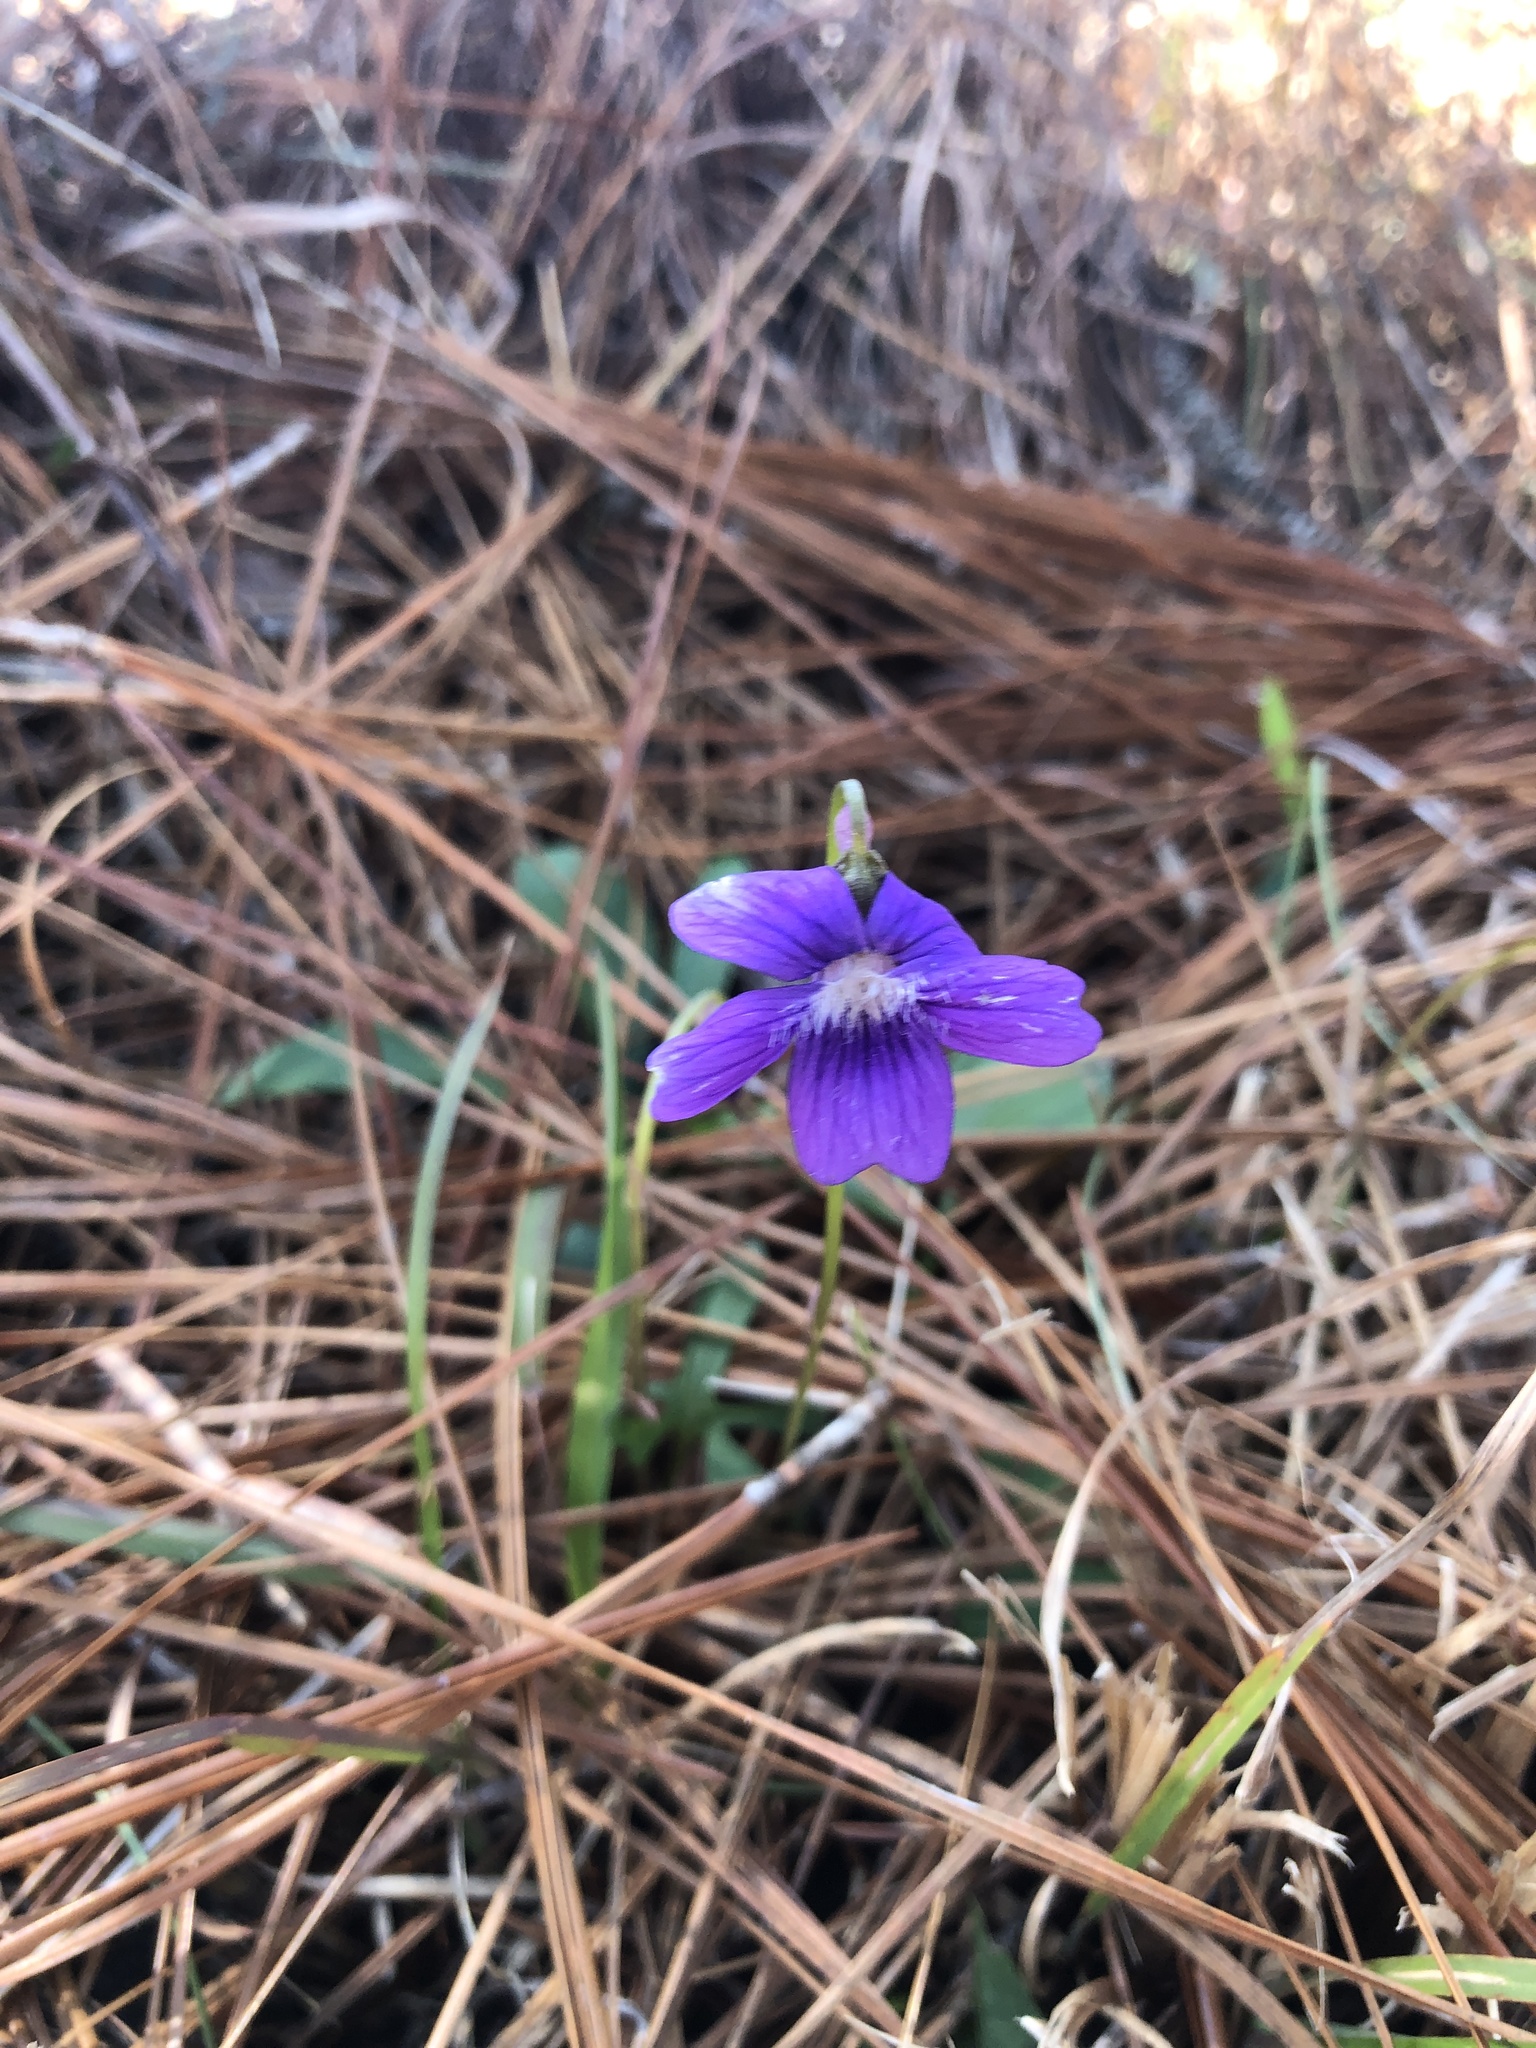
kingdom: Plantae
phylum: Tracheophyta
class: Magnoliopsida
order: Malpighiales
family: Violaceae
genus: Viola
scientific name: Viola septemloba
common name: Southern coast violet
